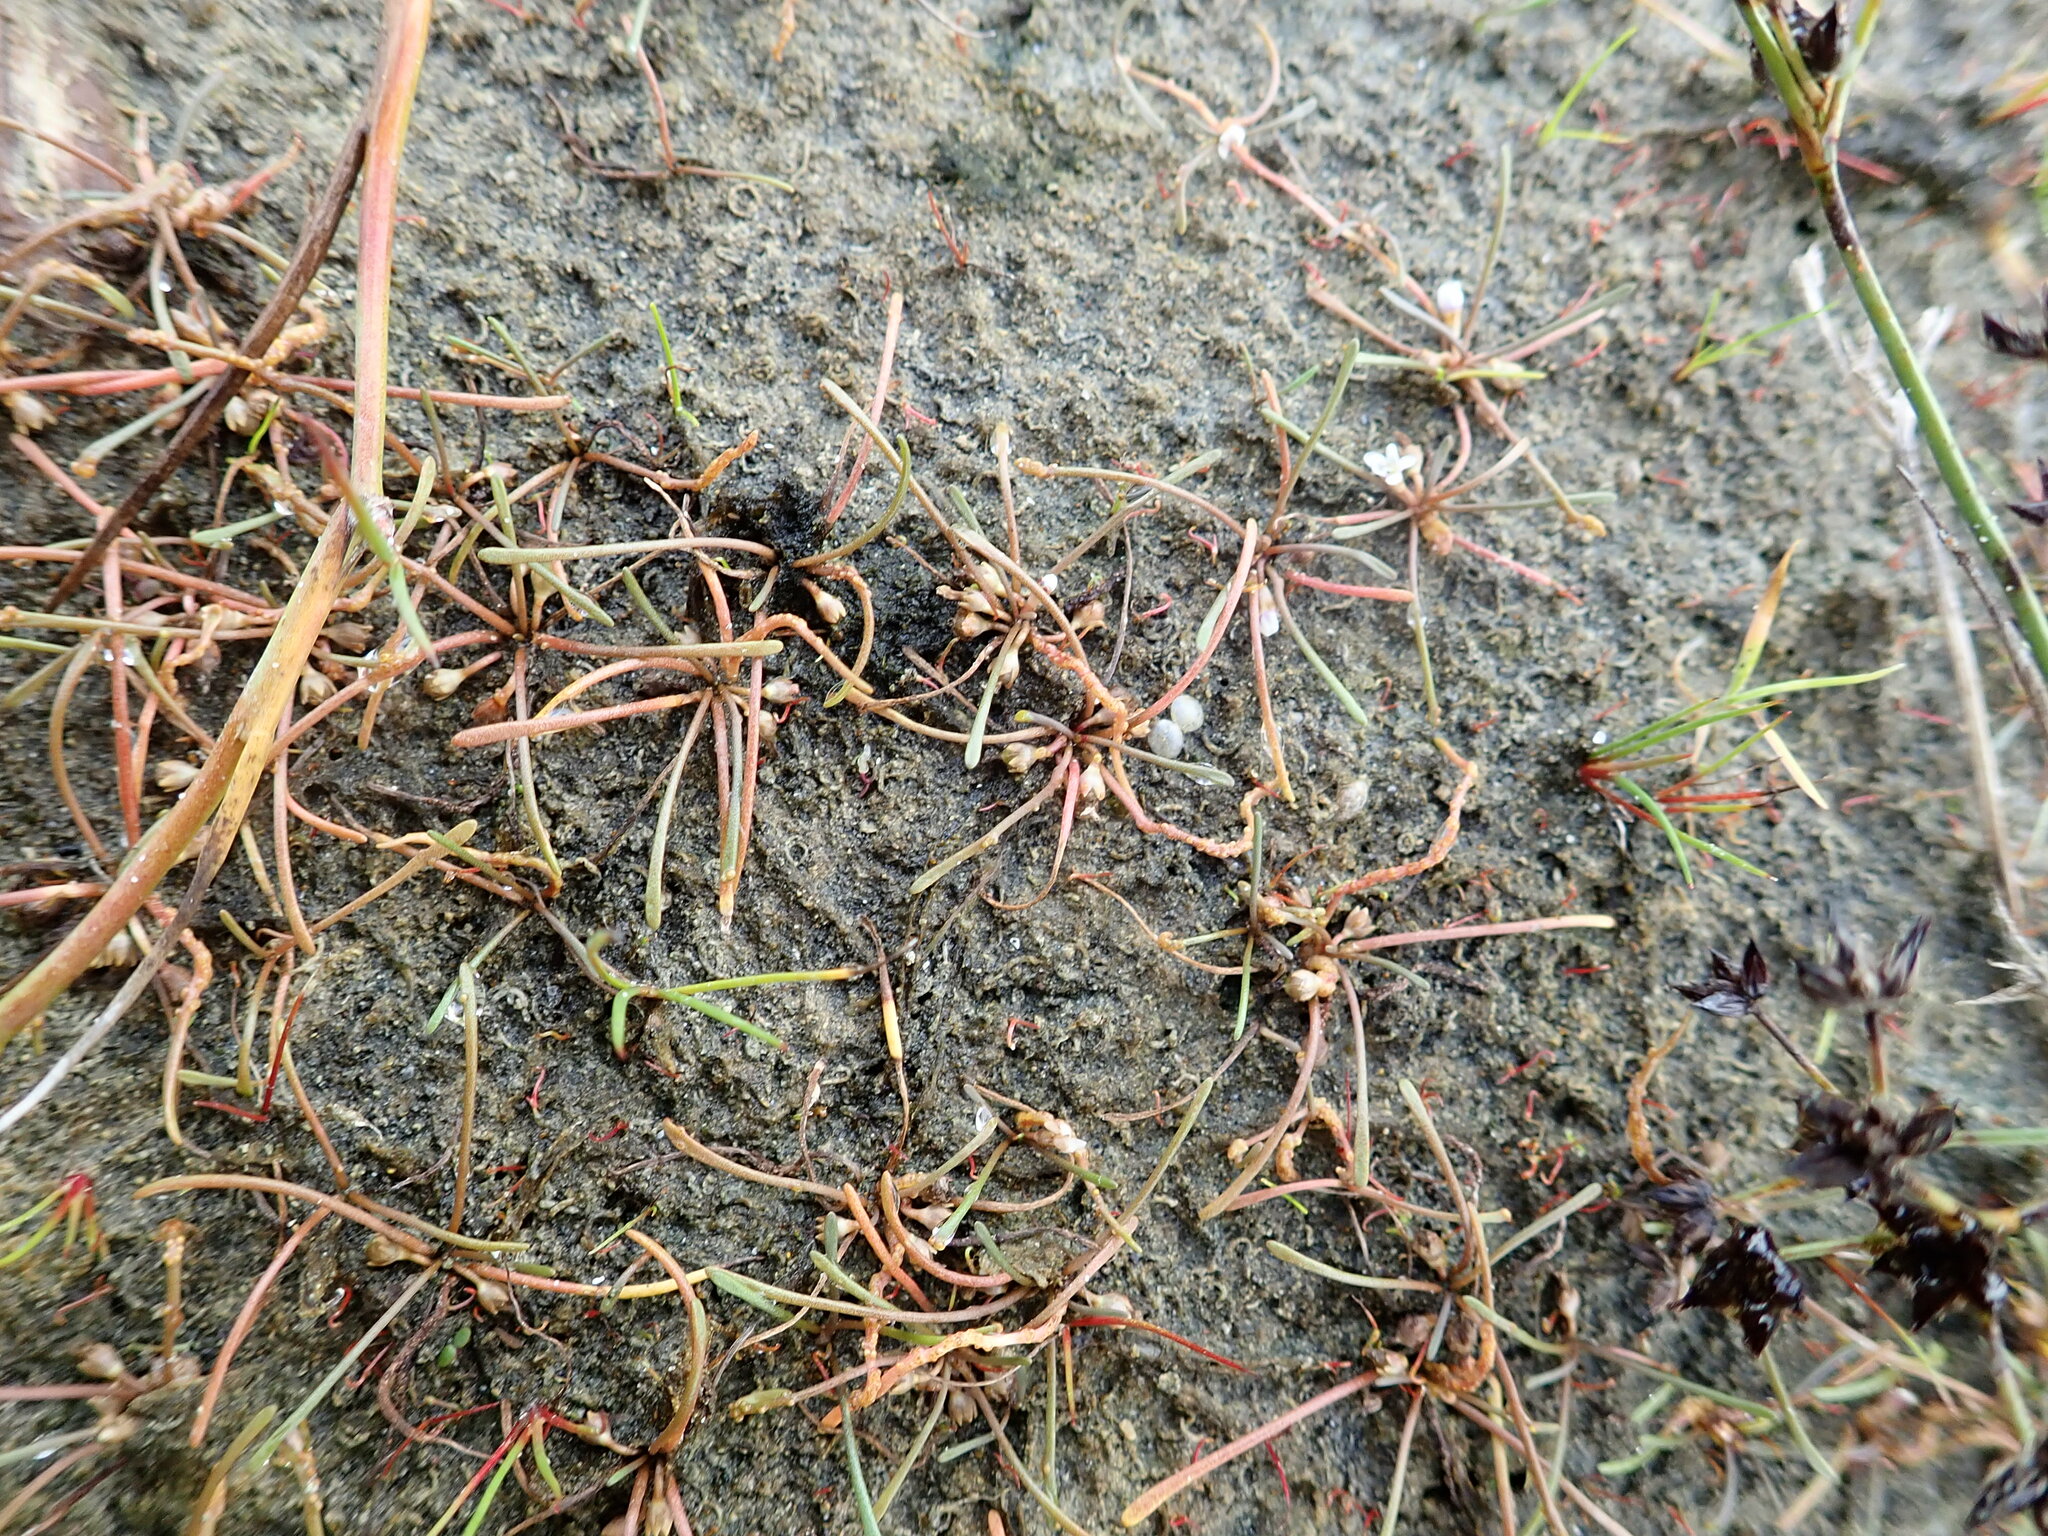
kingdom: Fungi
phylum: Chytridiomycota
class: Chytridiomycetes
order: Chytridiales
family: Synchytriaceae
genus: Synchytrium
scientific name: Synchytrium limosellae
